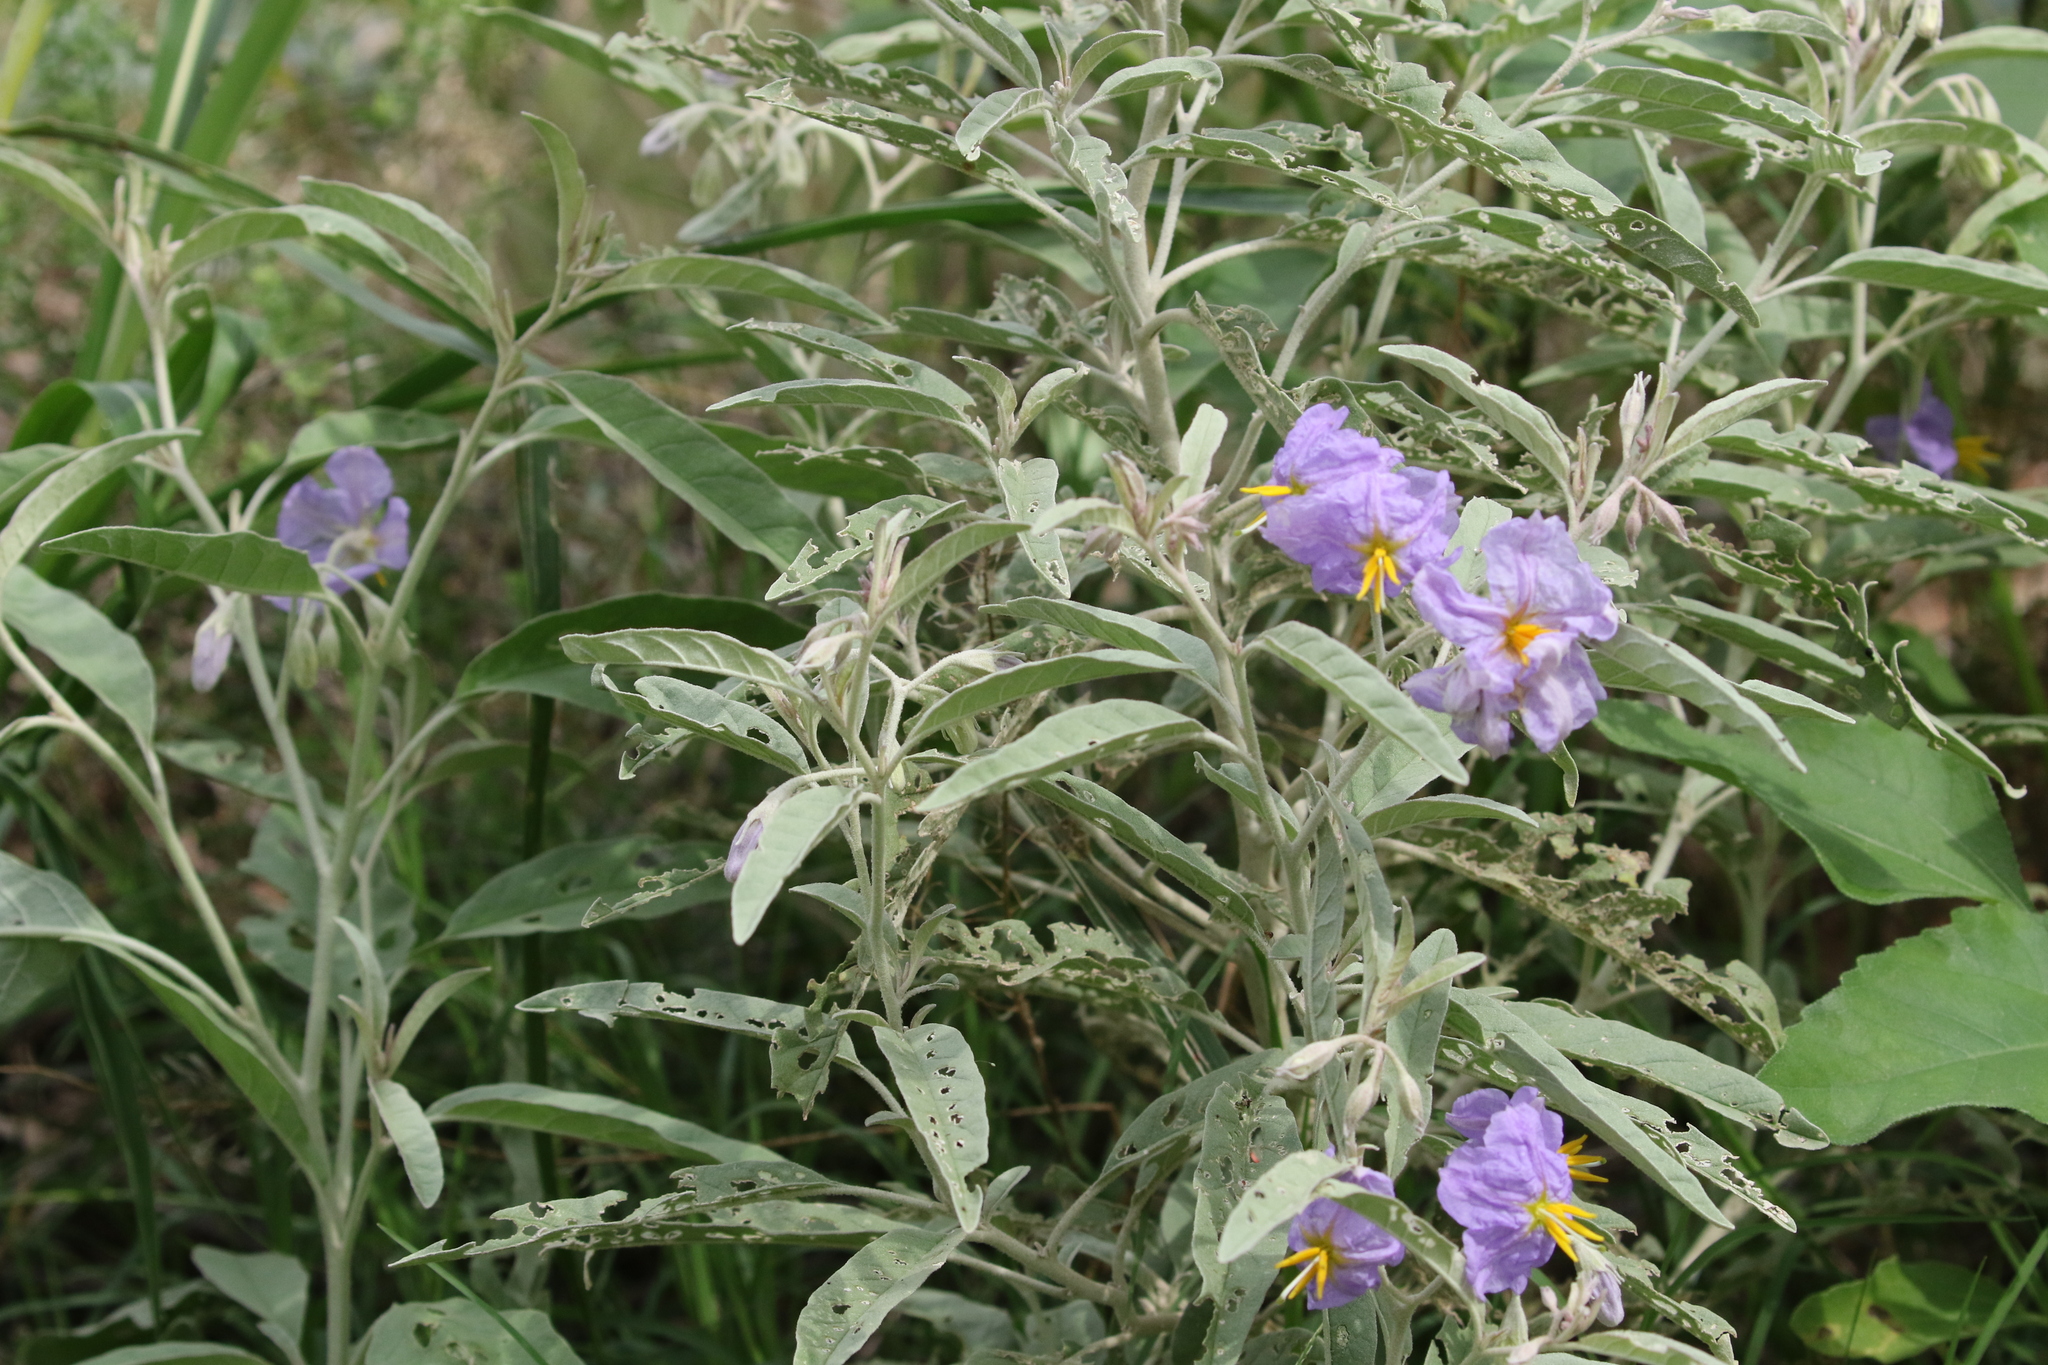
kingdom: Plantae
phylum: Tracheophyta
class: Magnoliopsida
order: Solanales
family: Solanaceae
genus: Solanum
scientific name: Solanum elaeagnifolium
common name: Silverleaf nightshade
